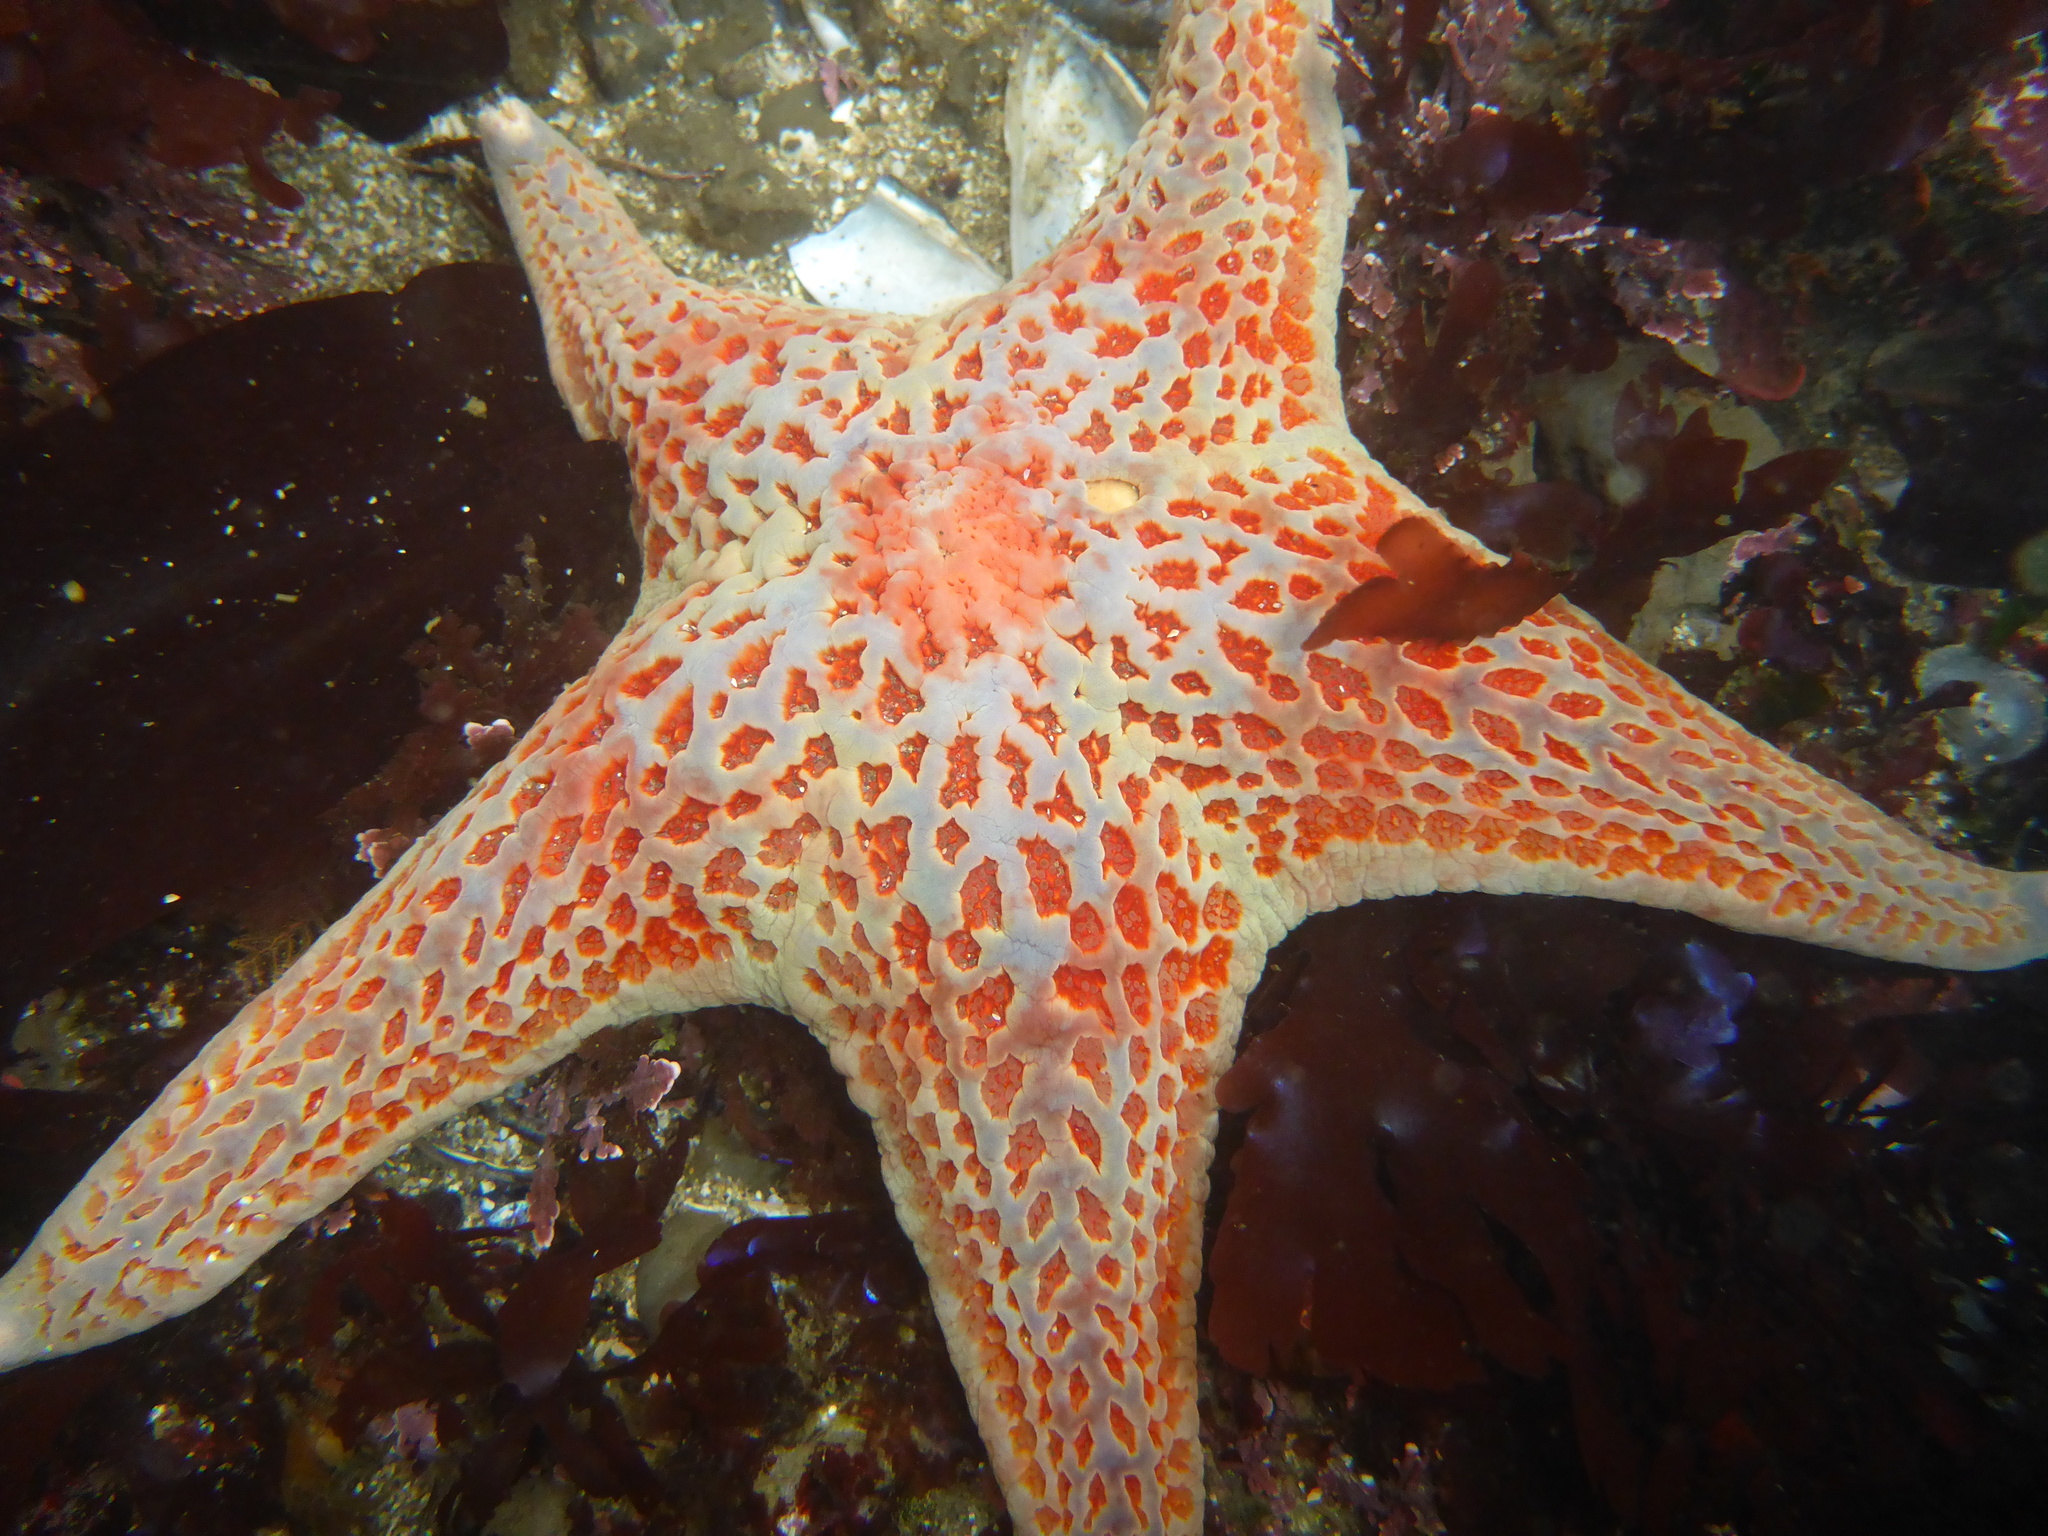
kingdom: Animalia
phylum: Echinodermata
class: Asteroidea
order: Valvatida
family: Asteropseidae
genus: Dermasterias
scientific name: Dermasterias imbricata
